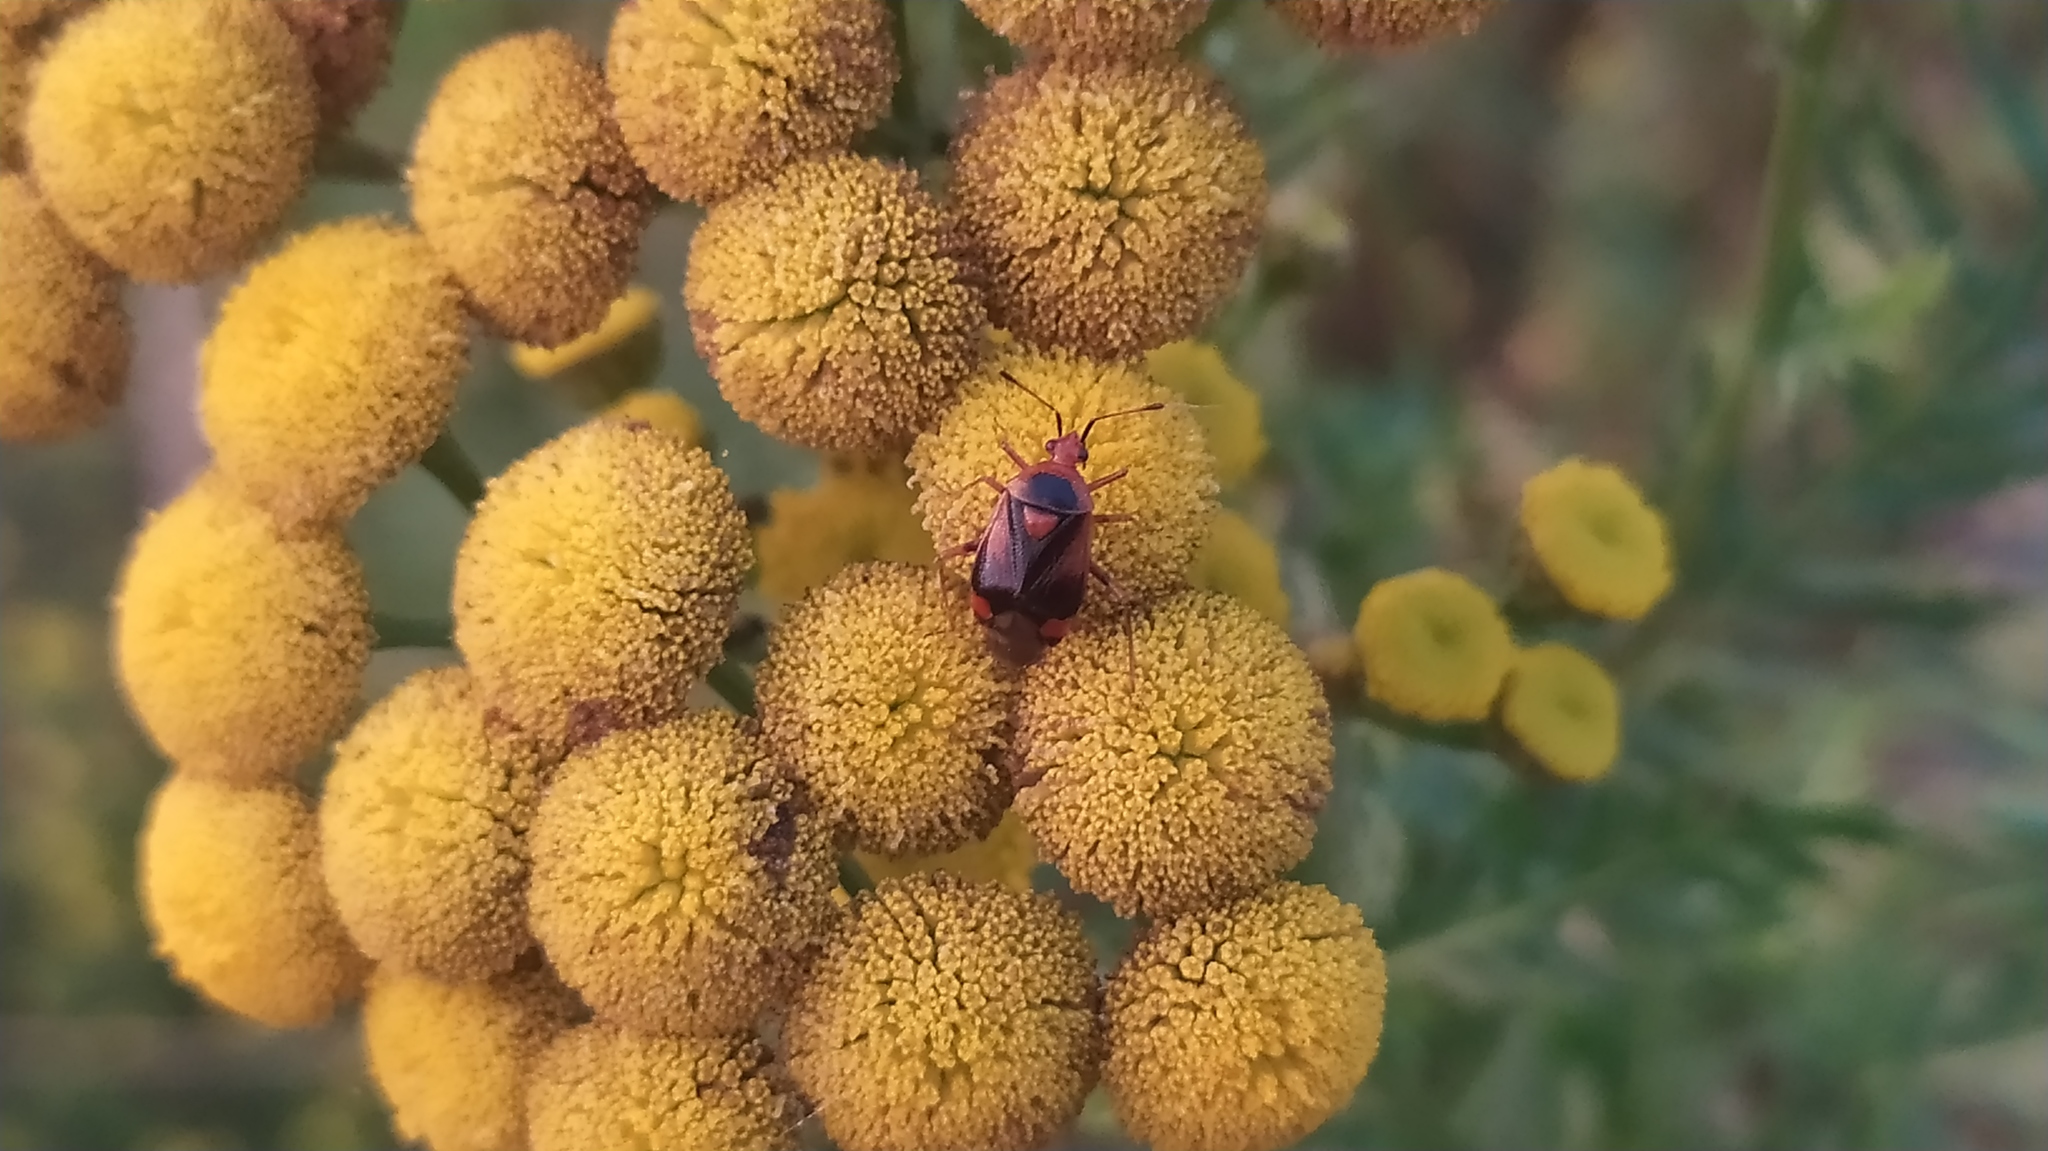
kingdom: Animalia
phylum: Arthropoda
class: Insecta
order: Hemiptera
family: Miridae
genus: Deraeocoris
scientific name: Deraeocoris ruber
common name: Plant bug
